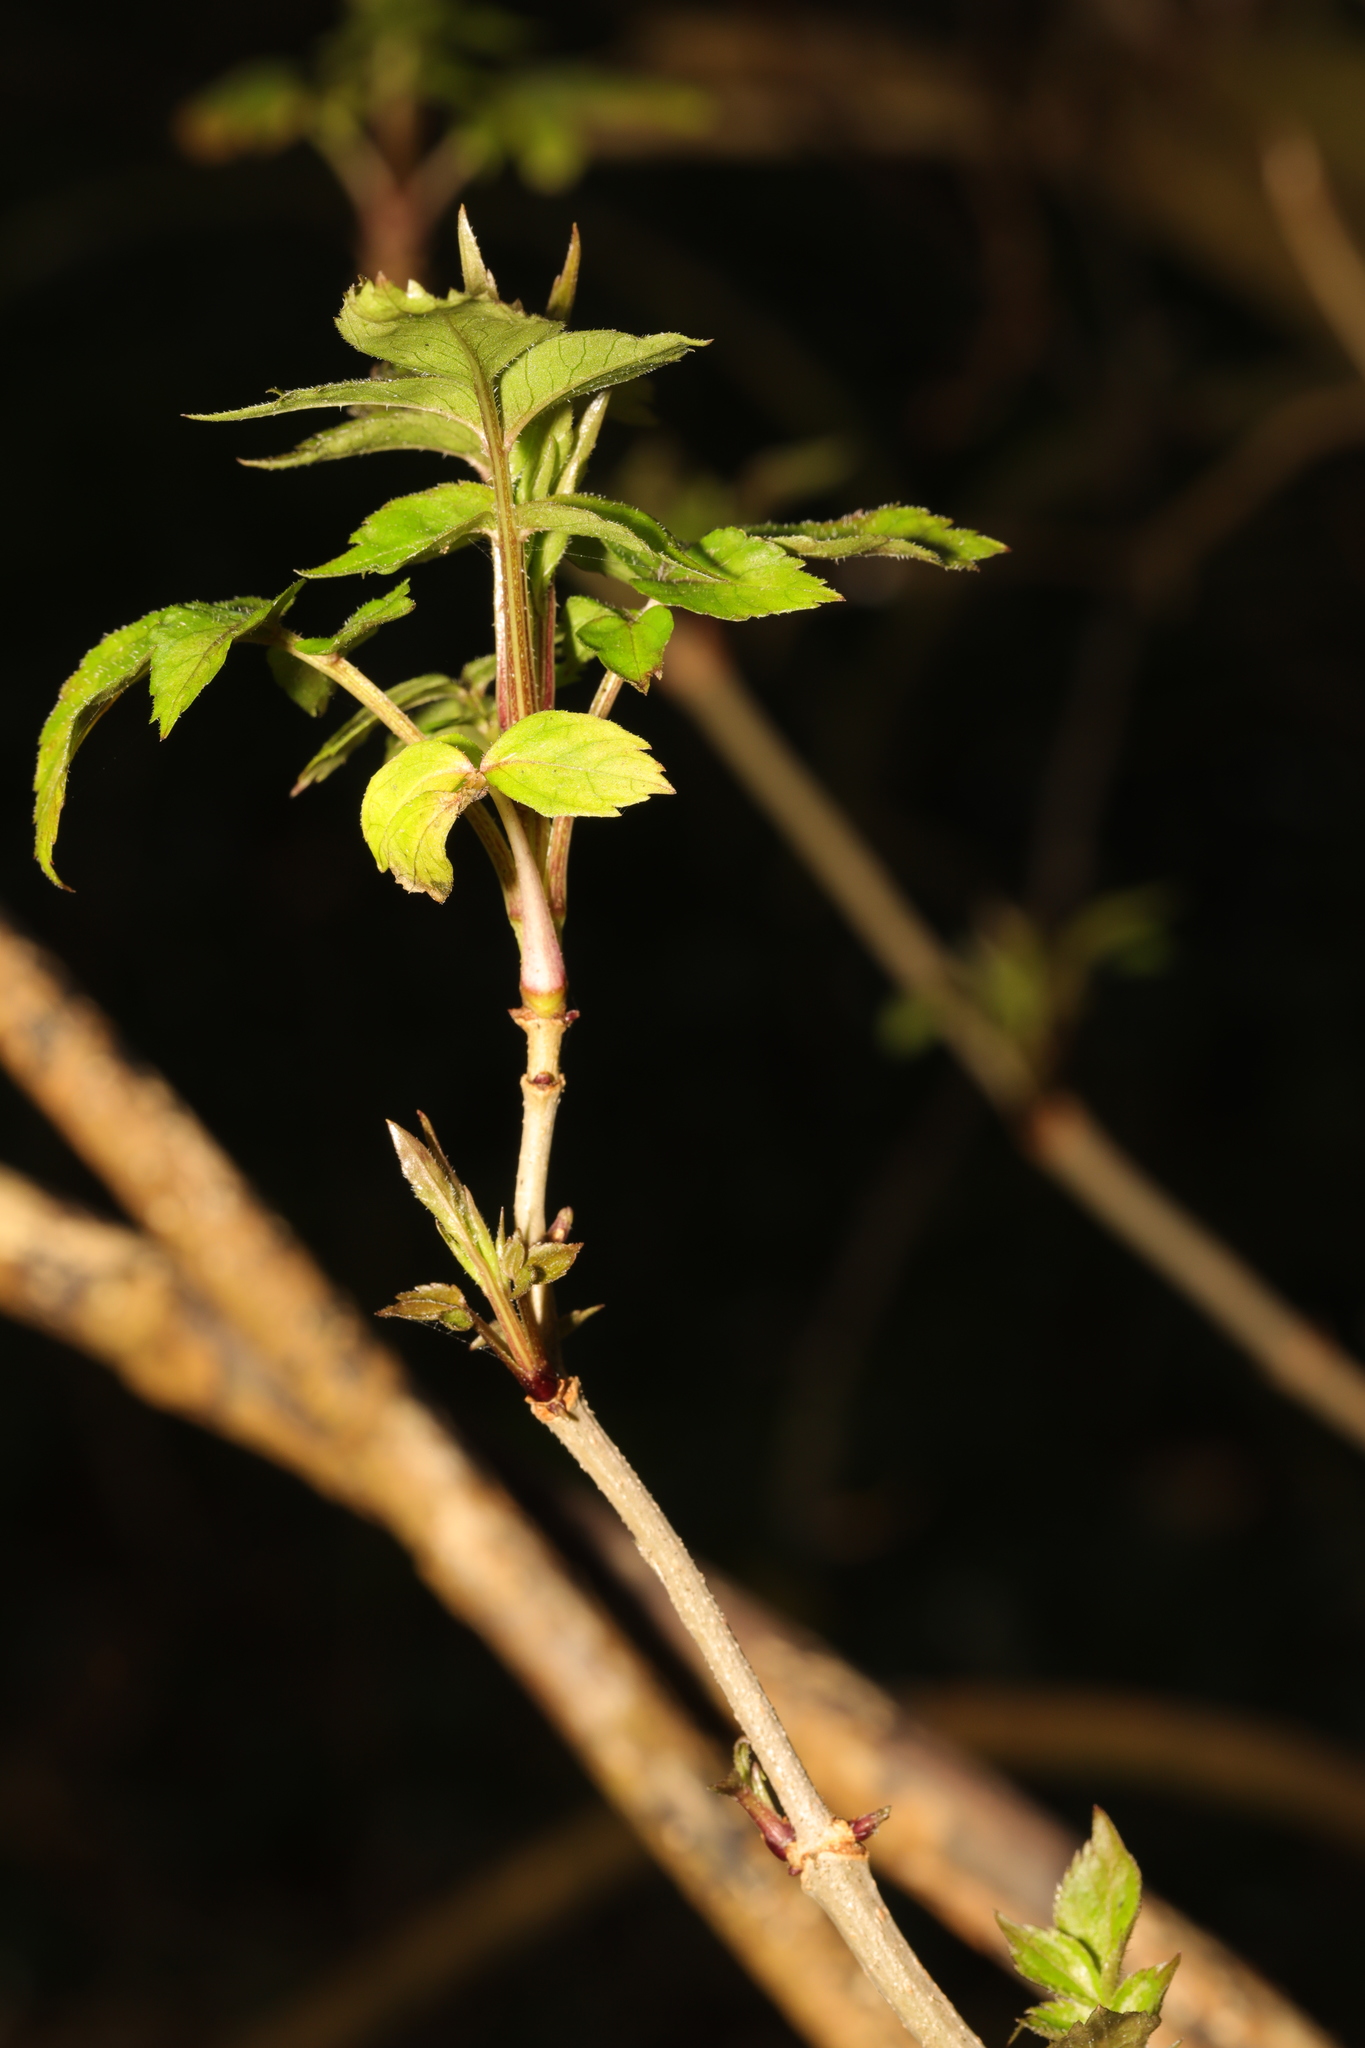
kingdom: Plantae
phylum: Tracheophyta
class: Magnoliopsida
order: Dipsacales
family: Viburnaceae
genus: Sambucus
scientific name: Sambucus nigra
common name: Elder
